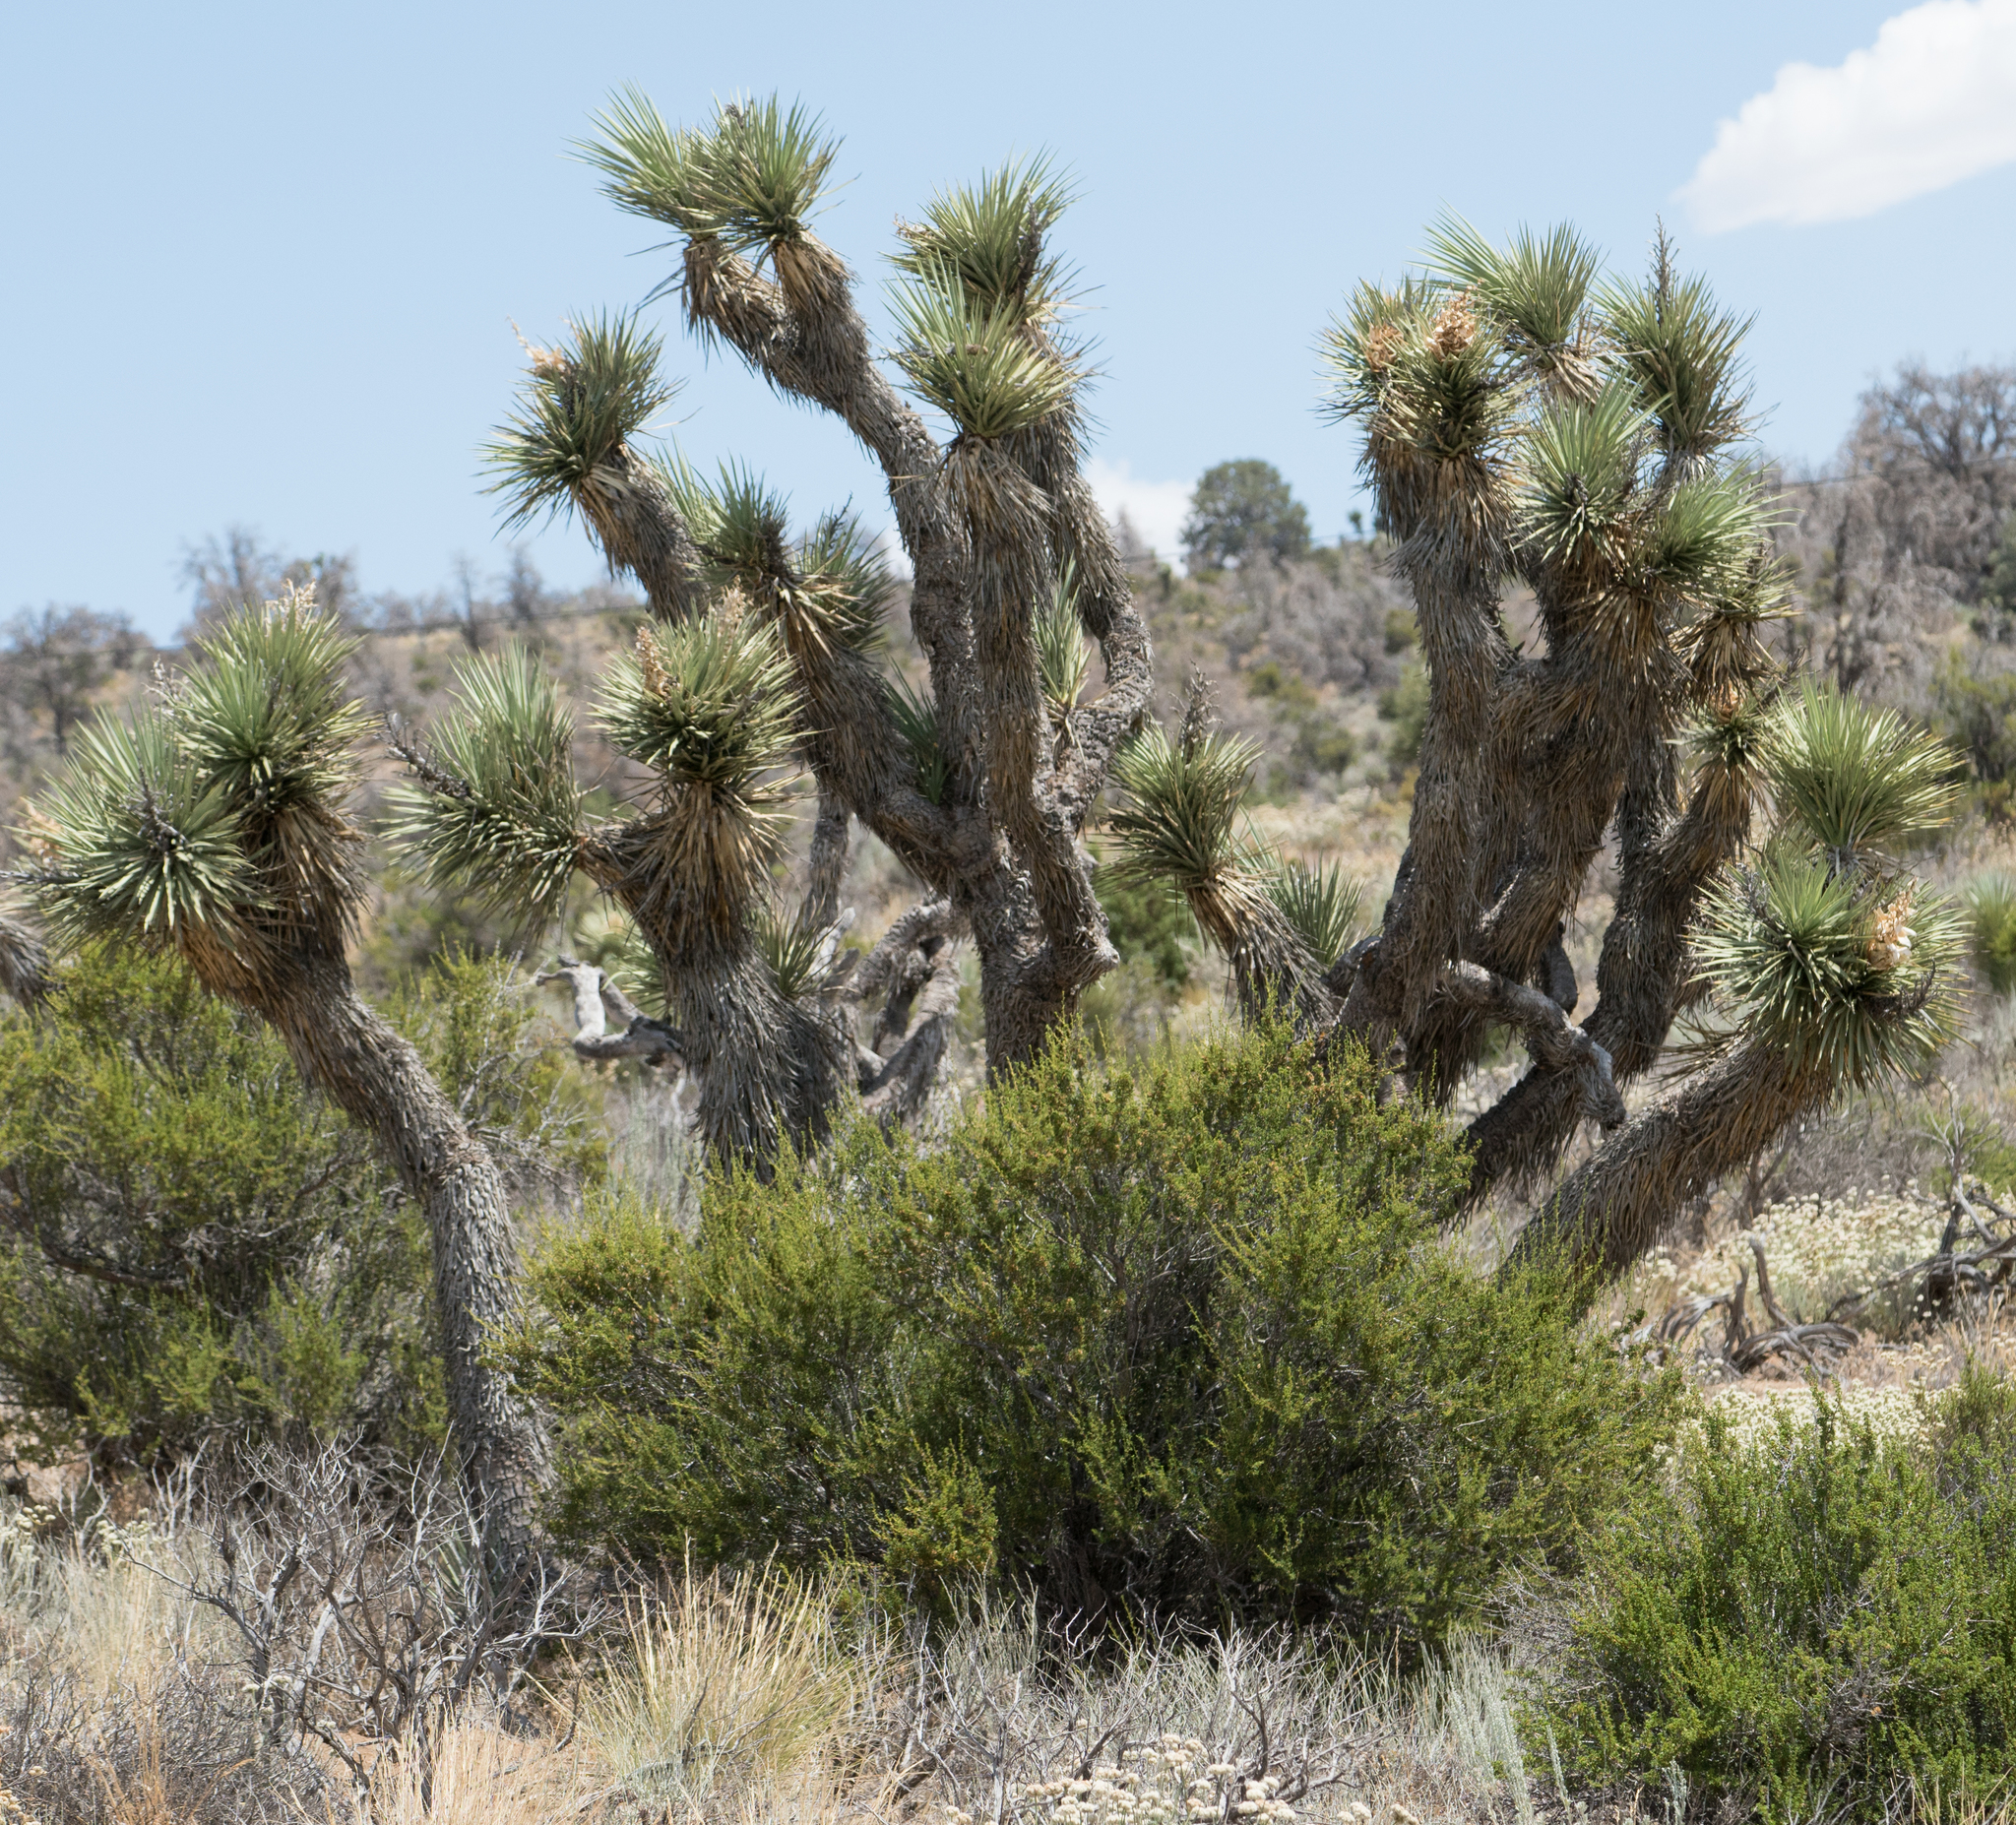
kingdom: Plantae
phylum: Tracheophyta
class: Liliopsida
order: Asparagales
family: Asparagaceae
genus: Yucca
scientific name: Yucca brevifolia
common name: Joshua tree
